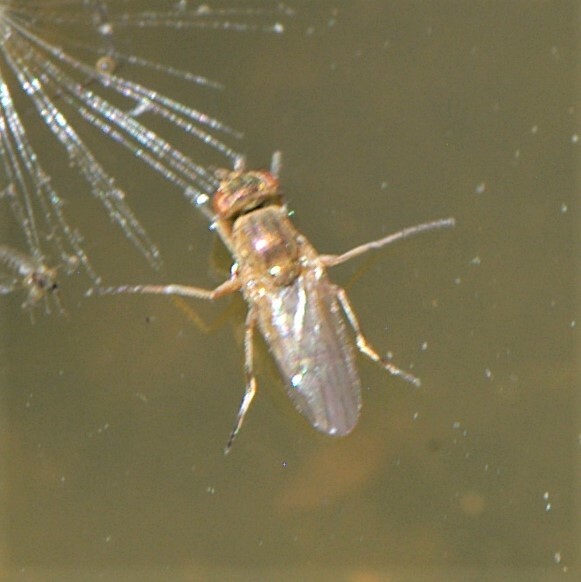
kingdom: Animalia
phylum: Arthropoda
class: Insecta
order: Diptera
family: Ephydridae
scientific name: Ephydridae
